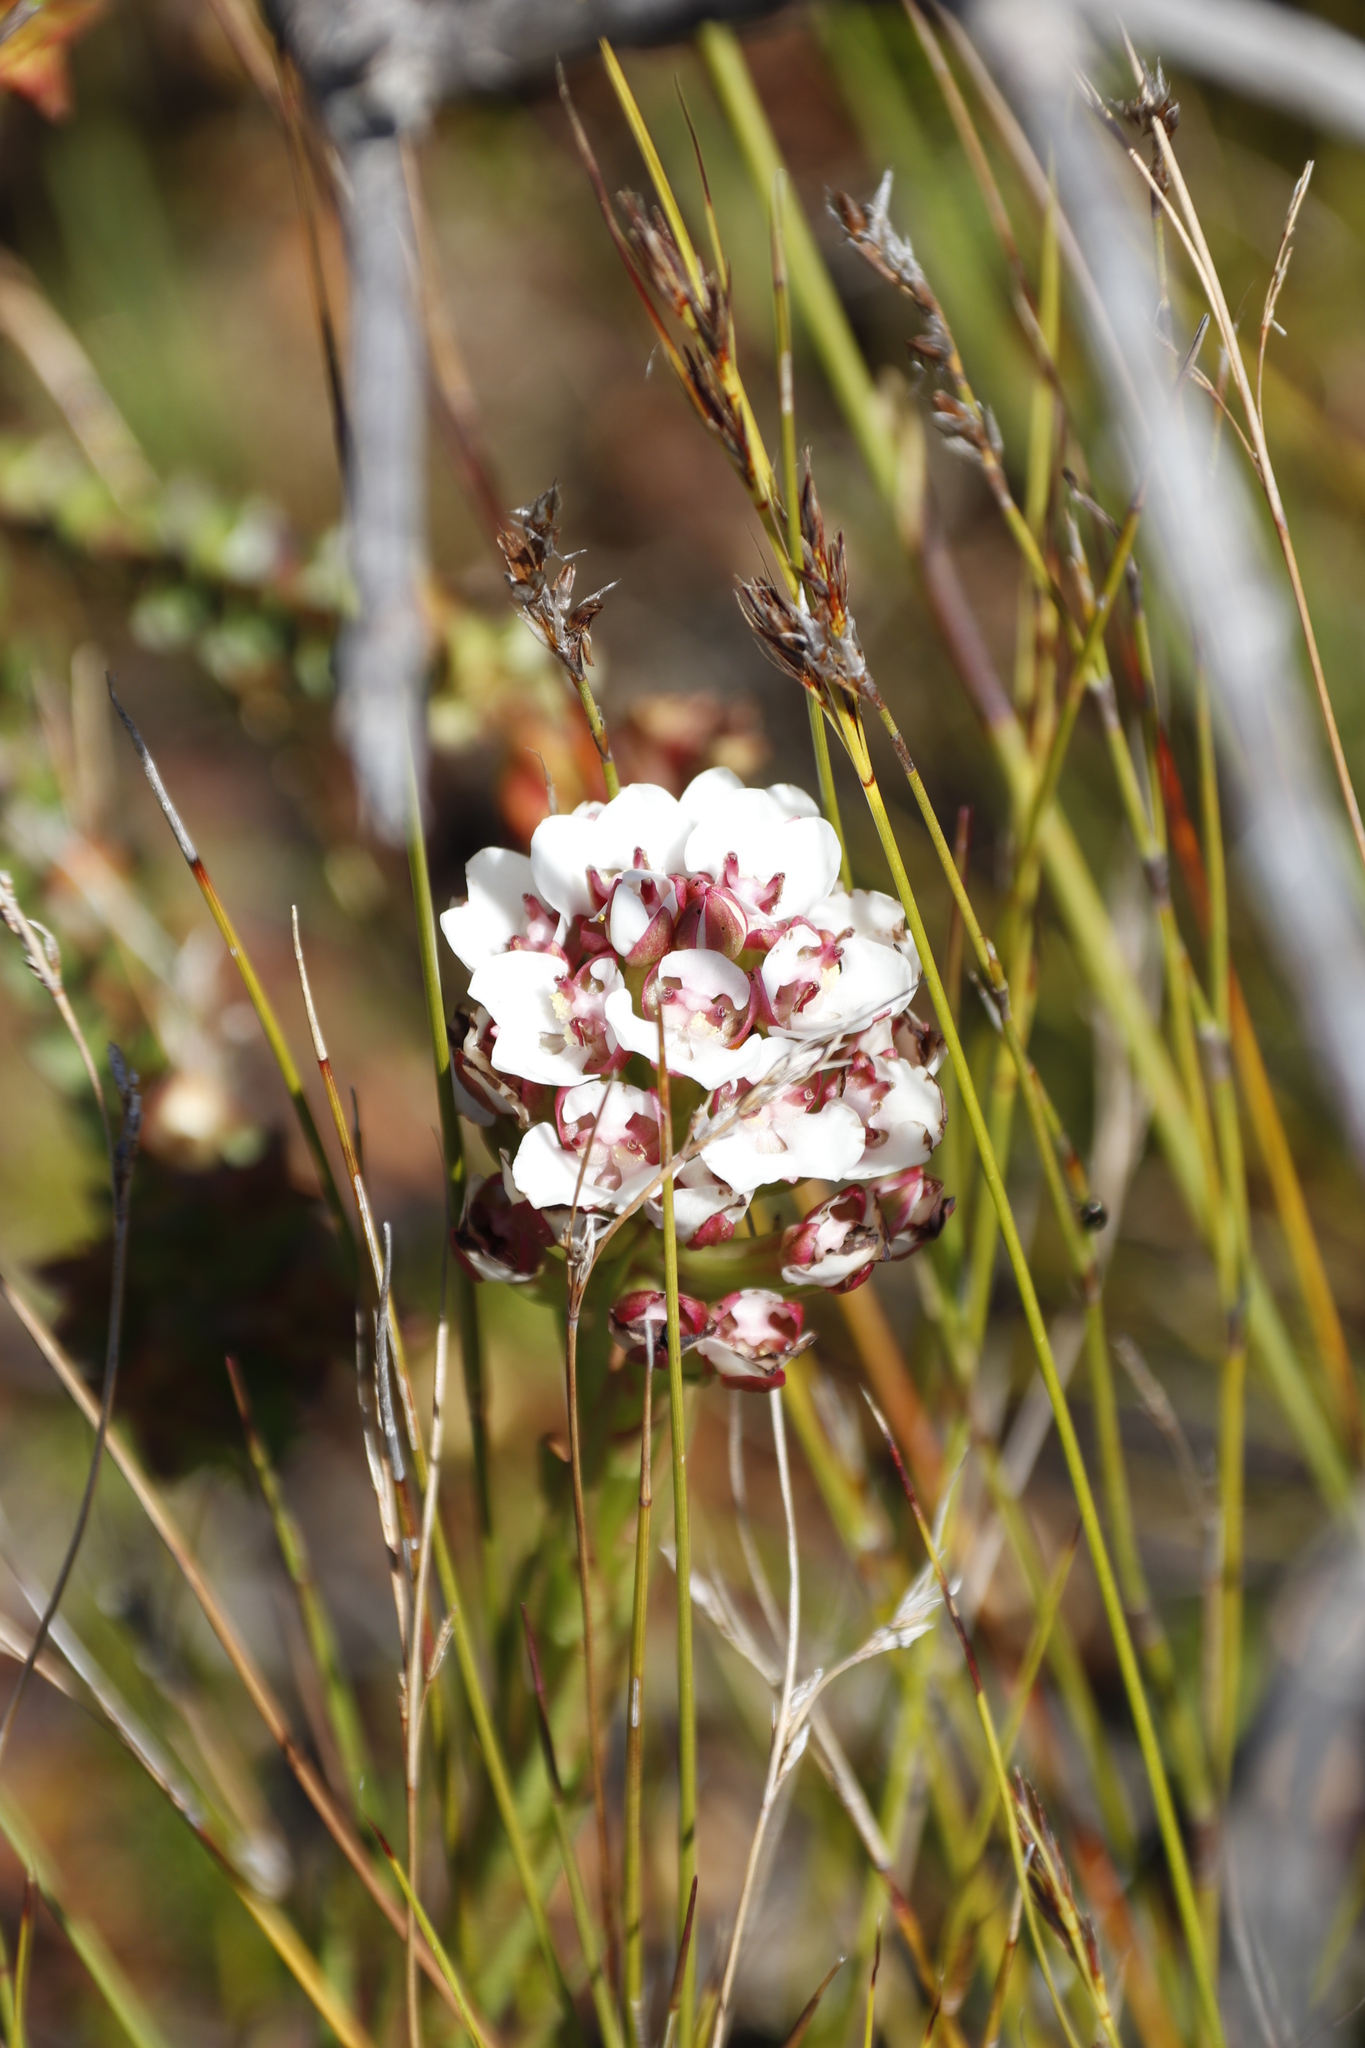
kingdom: Plantae
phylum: Tracheophyta
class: Liliopsida
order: Asparagales
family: Orchidaceae
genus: Ceratandra
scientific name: Ceratandra globosa
